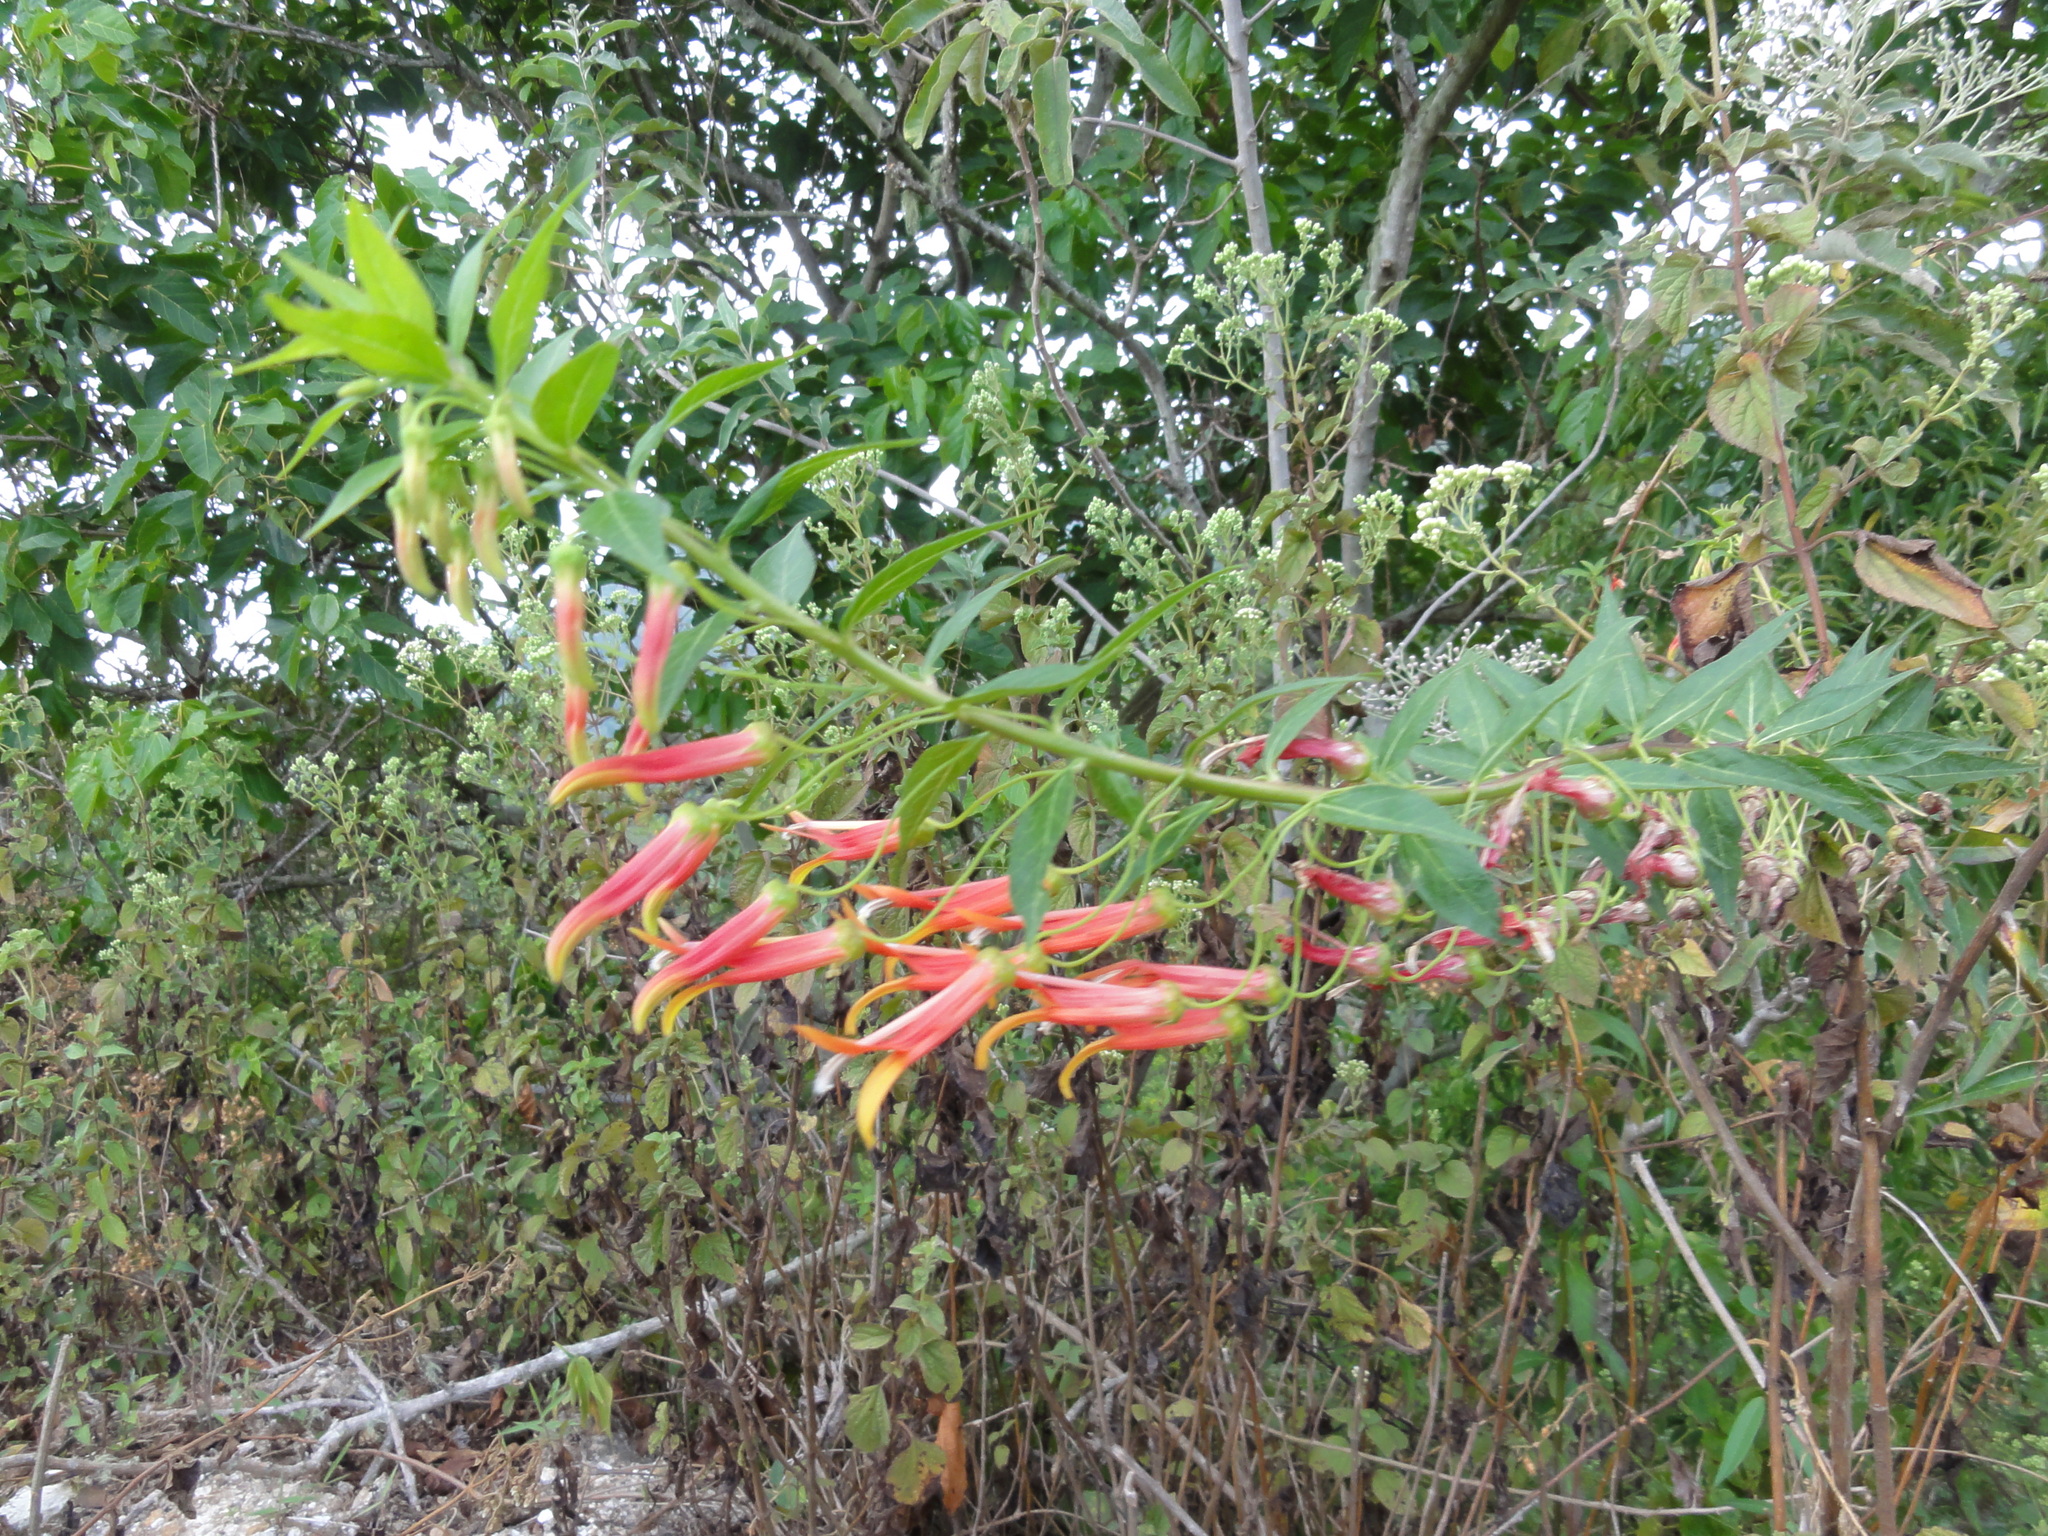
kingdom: Plantae
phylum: Tracheophyta
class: Magnoliopsida
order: Asterales
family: Campanulaceae
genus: Lobelia
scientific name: Lobelia laxiflora
